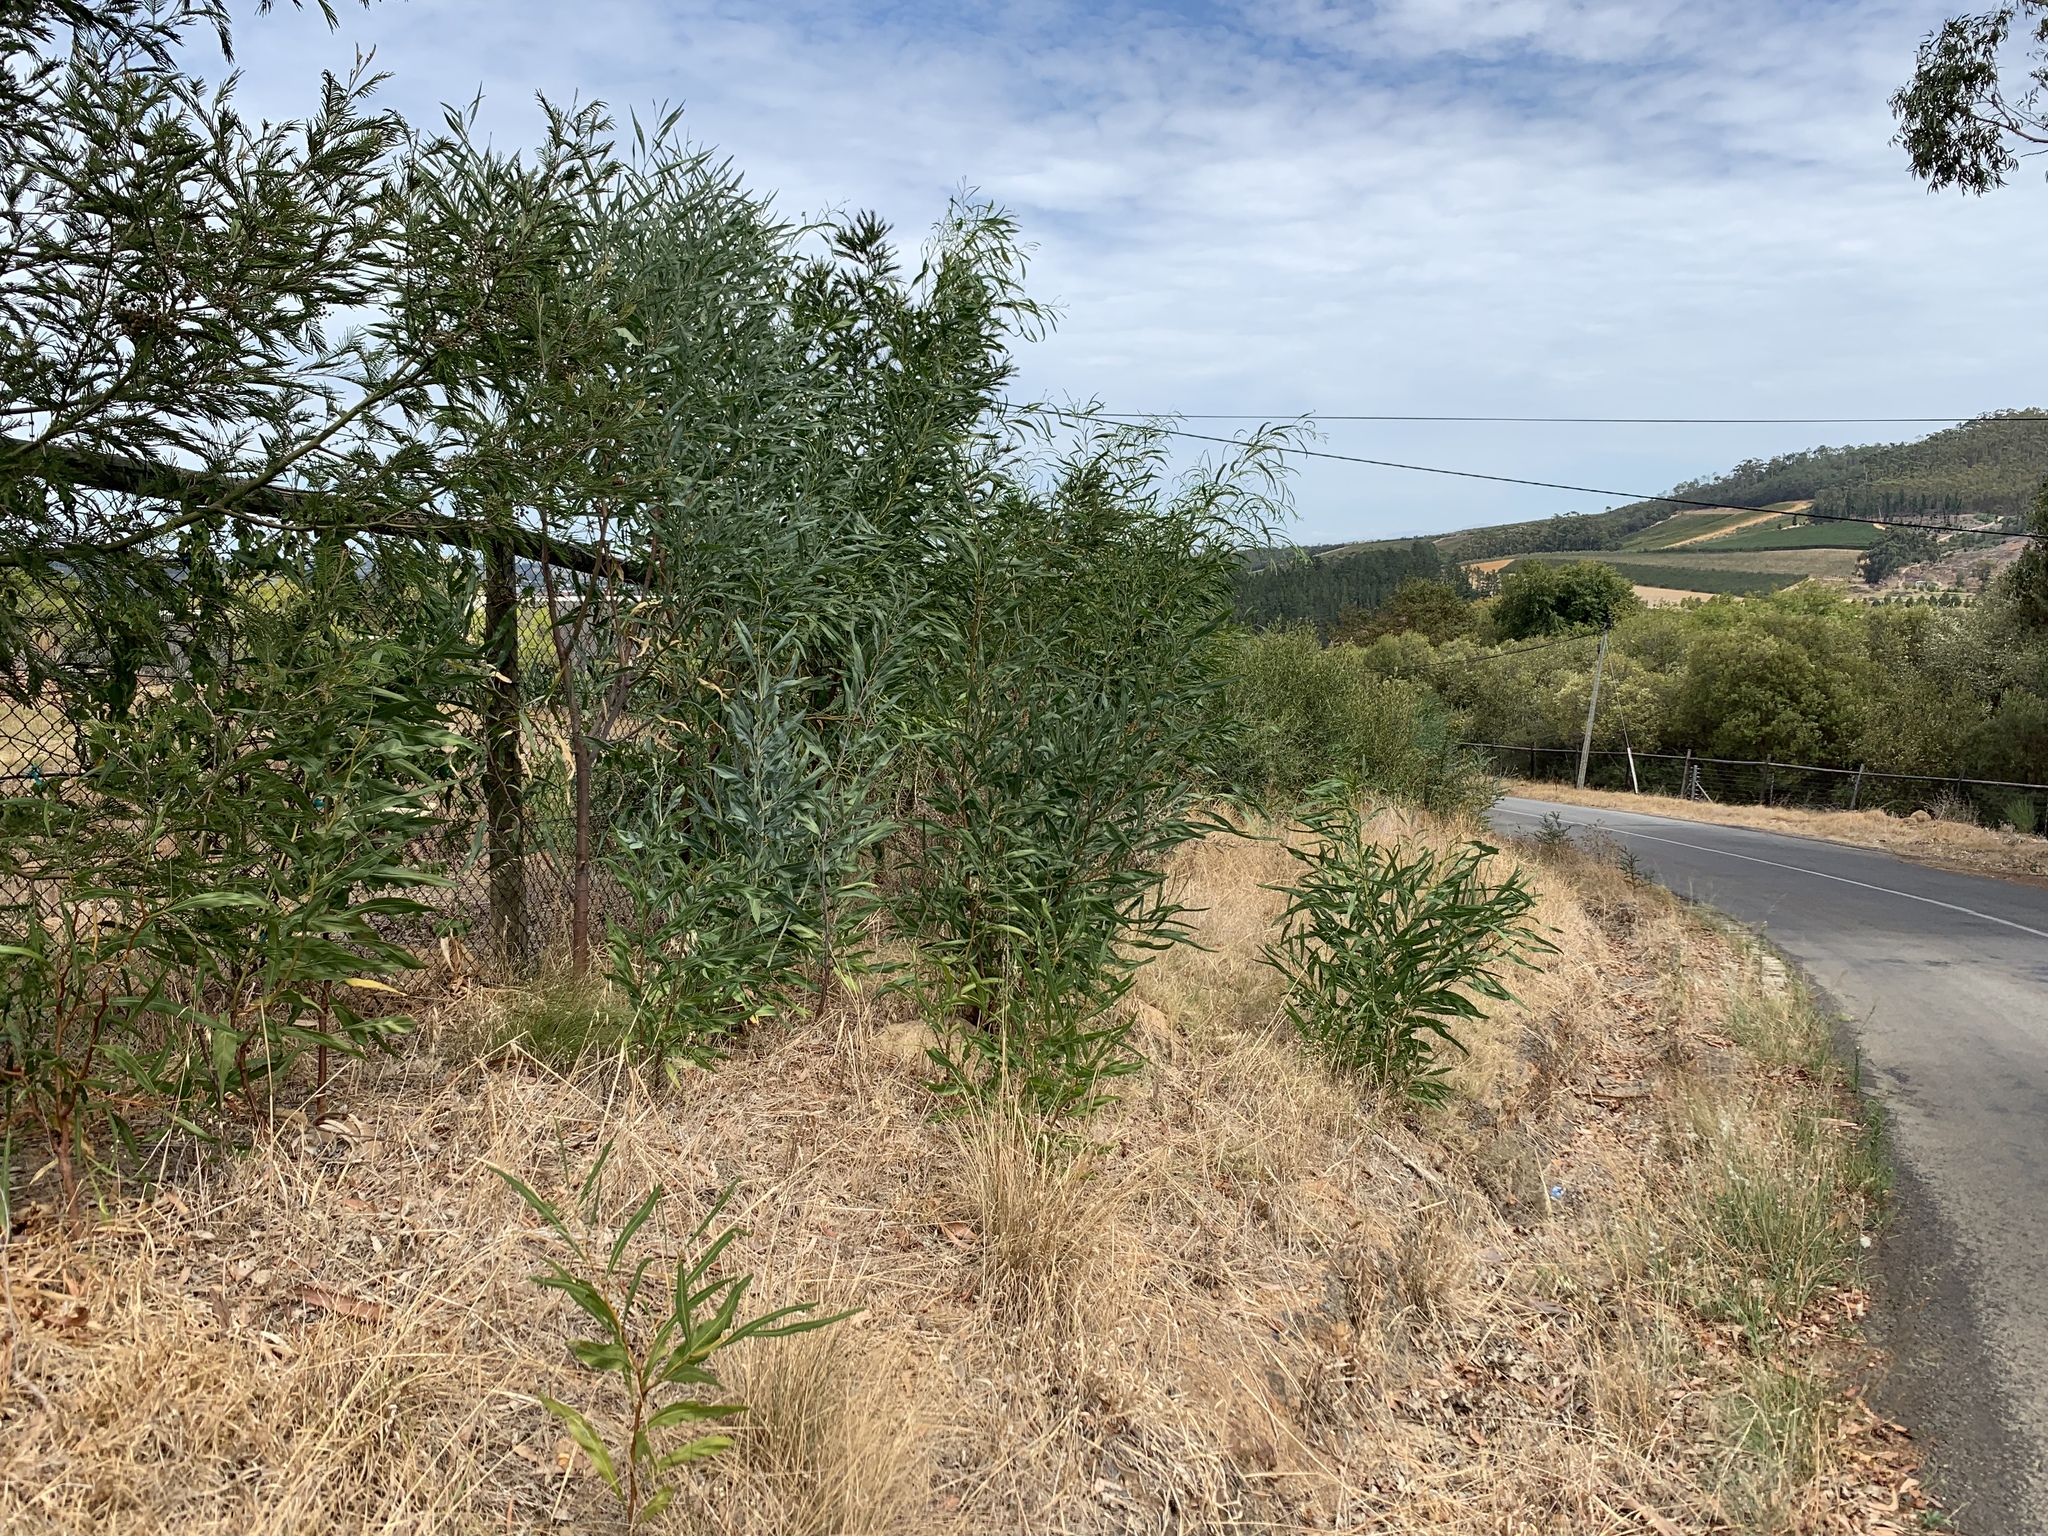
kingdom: Plantae
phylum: Tracheophyta
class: Magnoliopsida
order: Fabales
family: Fabaceae
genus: Acacia
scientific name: Acacia saligna
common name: Orange wattle
